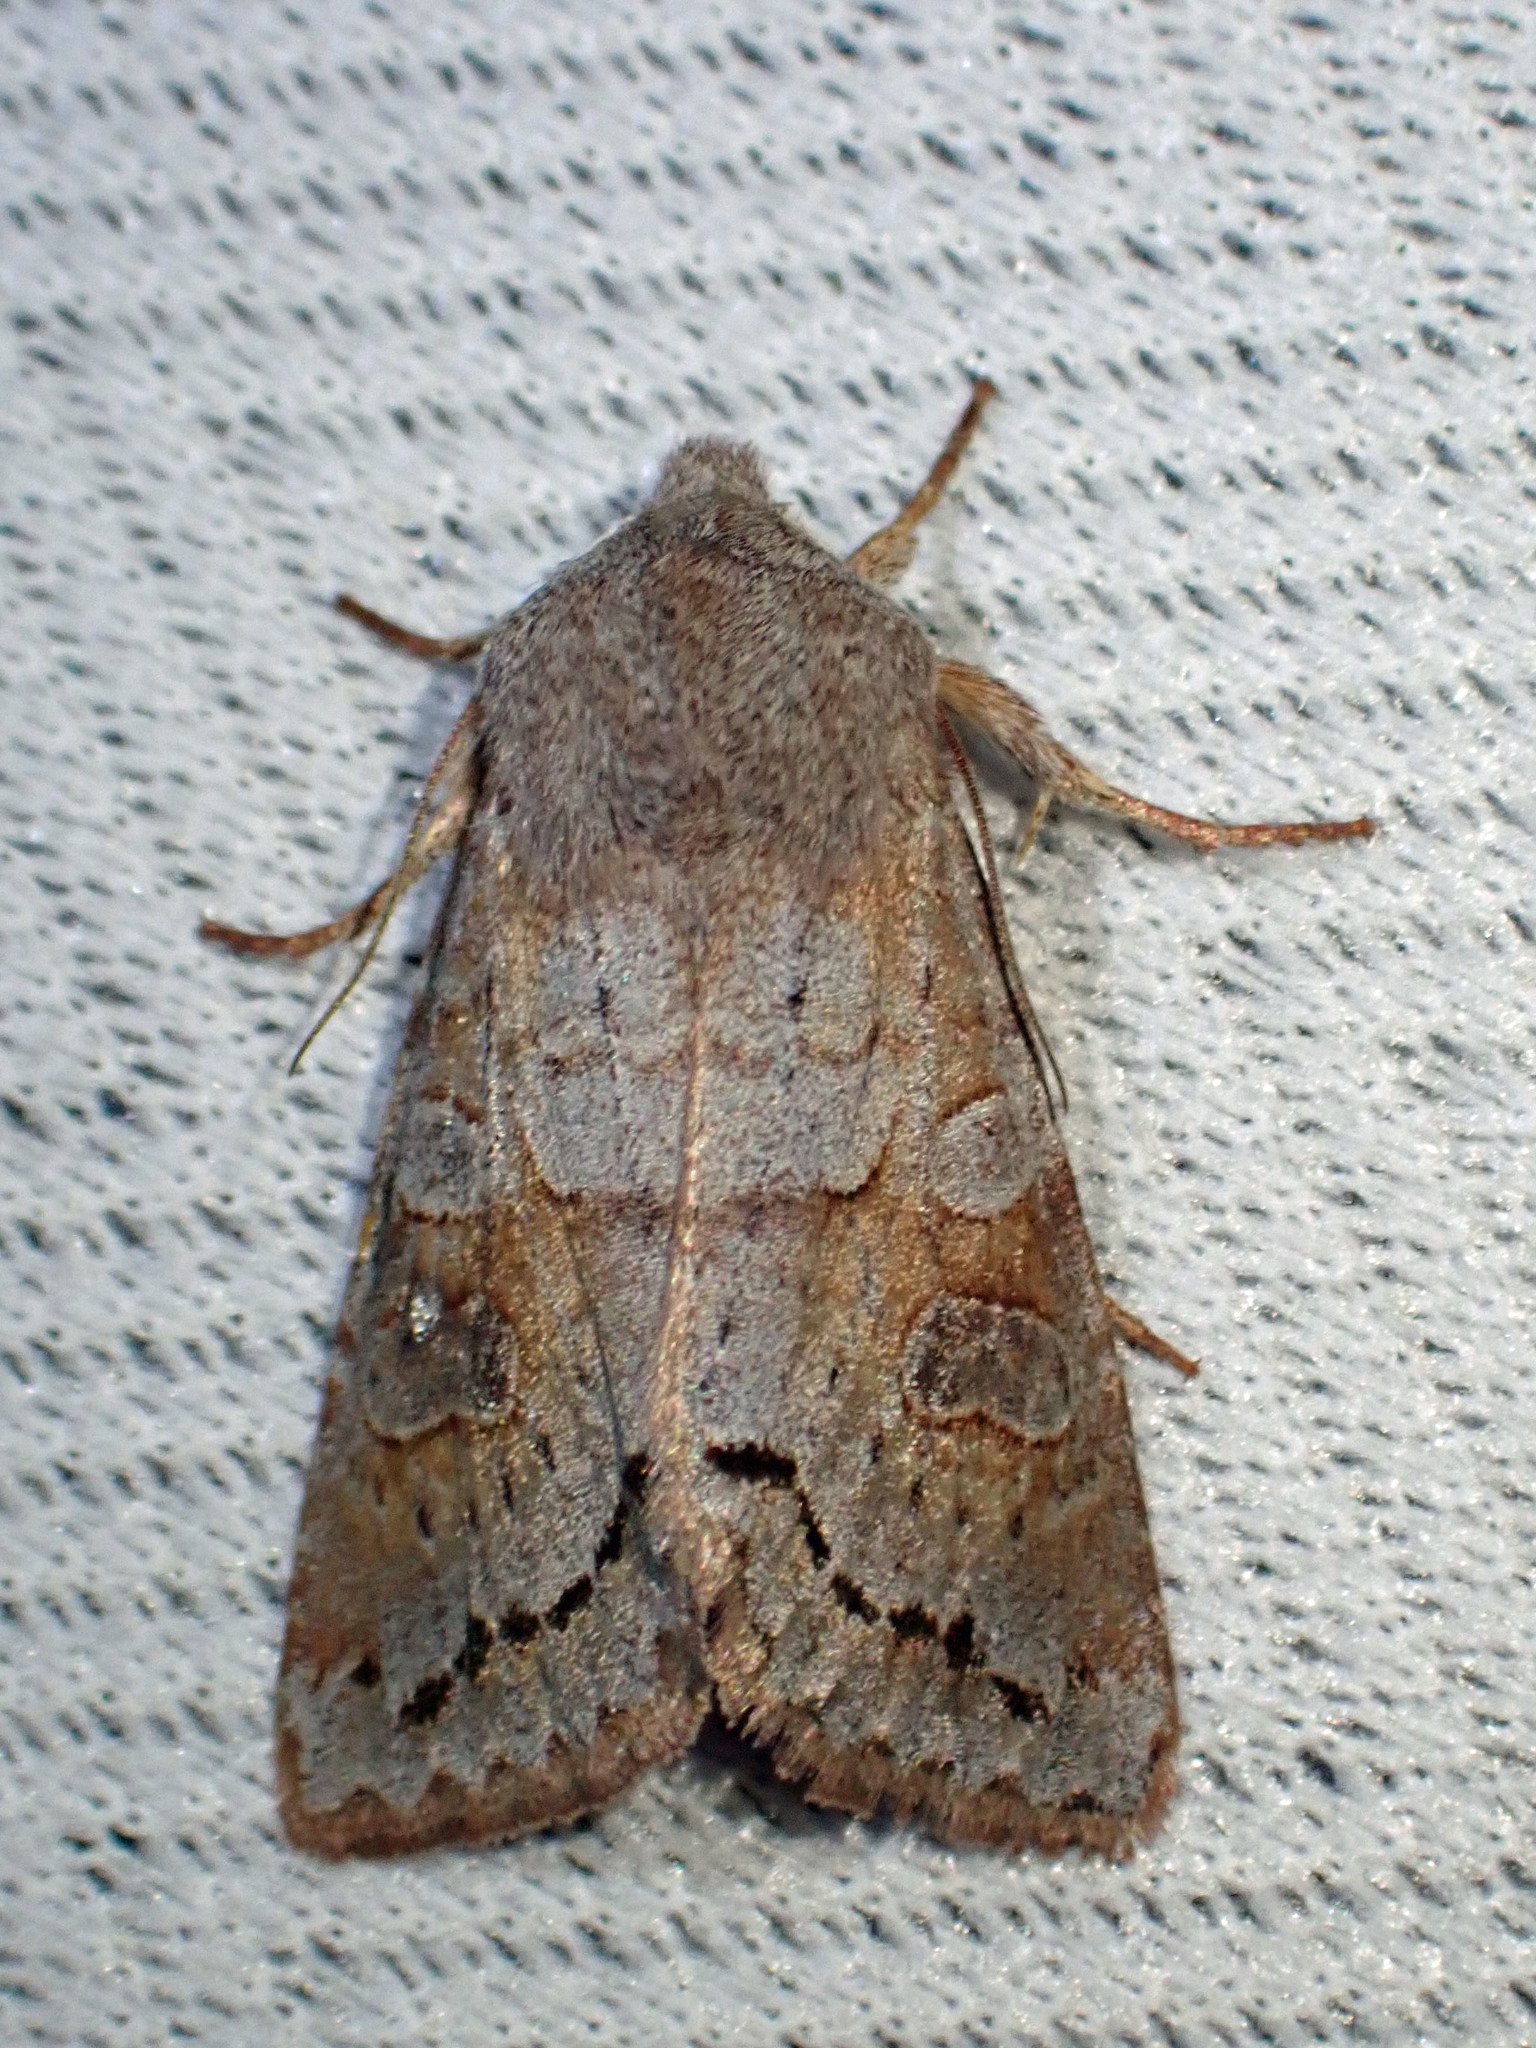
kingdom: Animalia
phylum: Arthropoda
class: Insecta
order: Lepidoptera
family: Noctuidae
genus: Orthosia
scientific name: Orthosia revicta
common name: Rusty whitesided caterpillar
